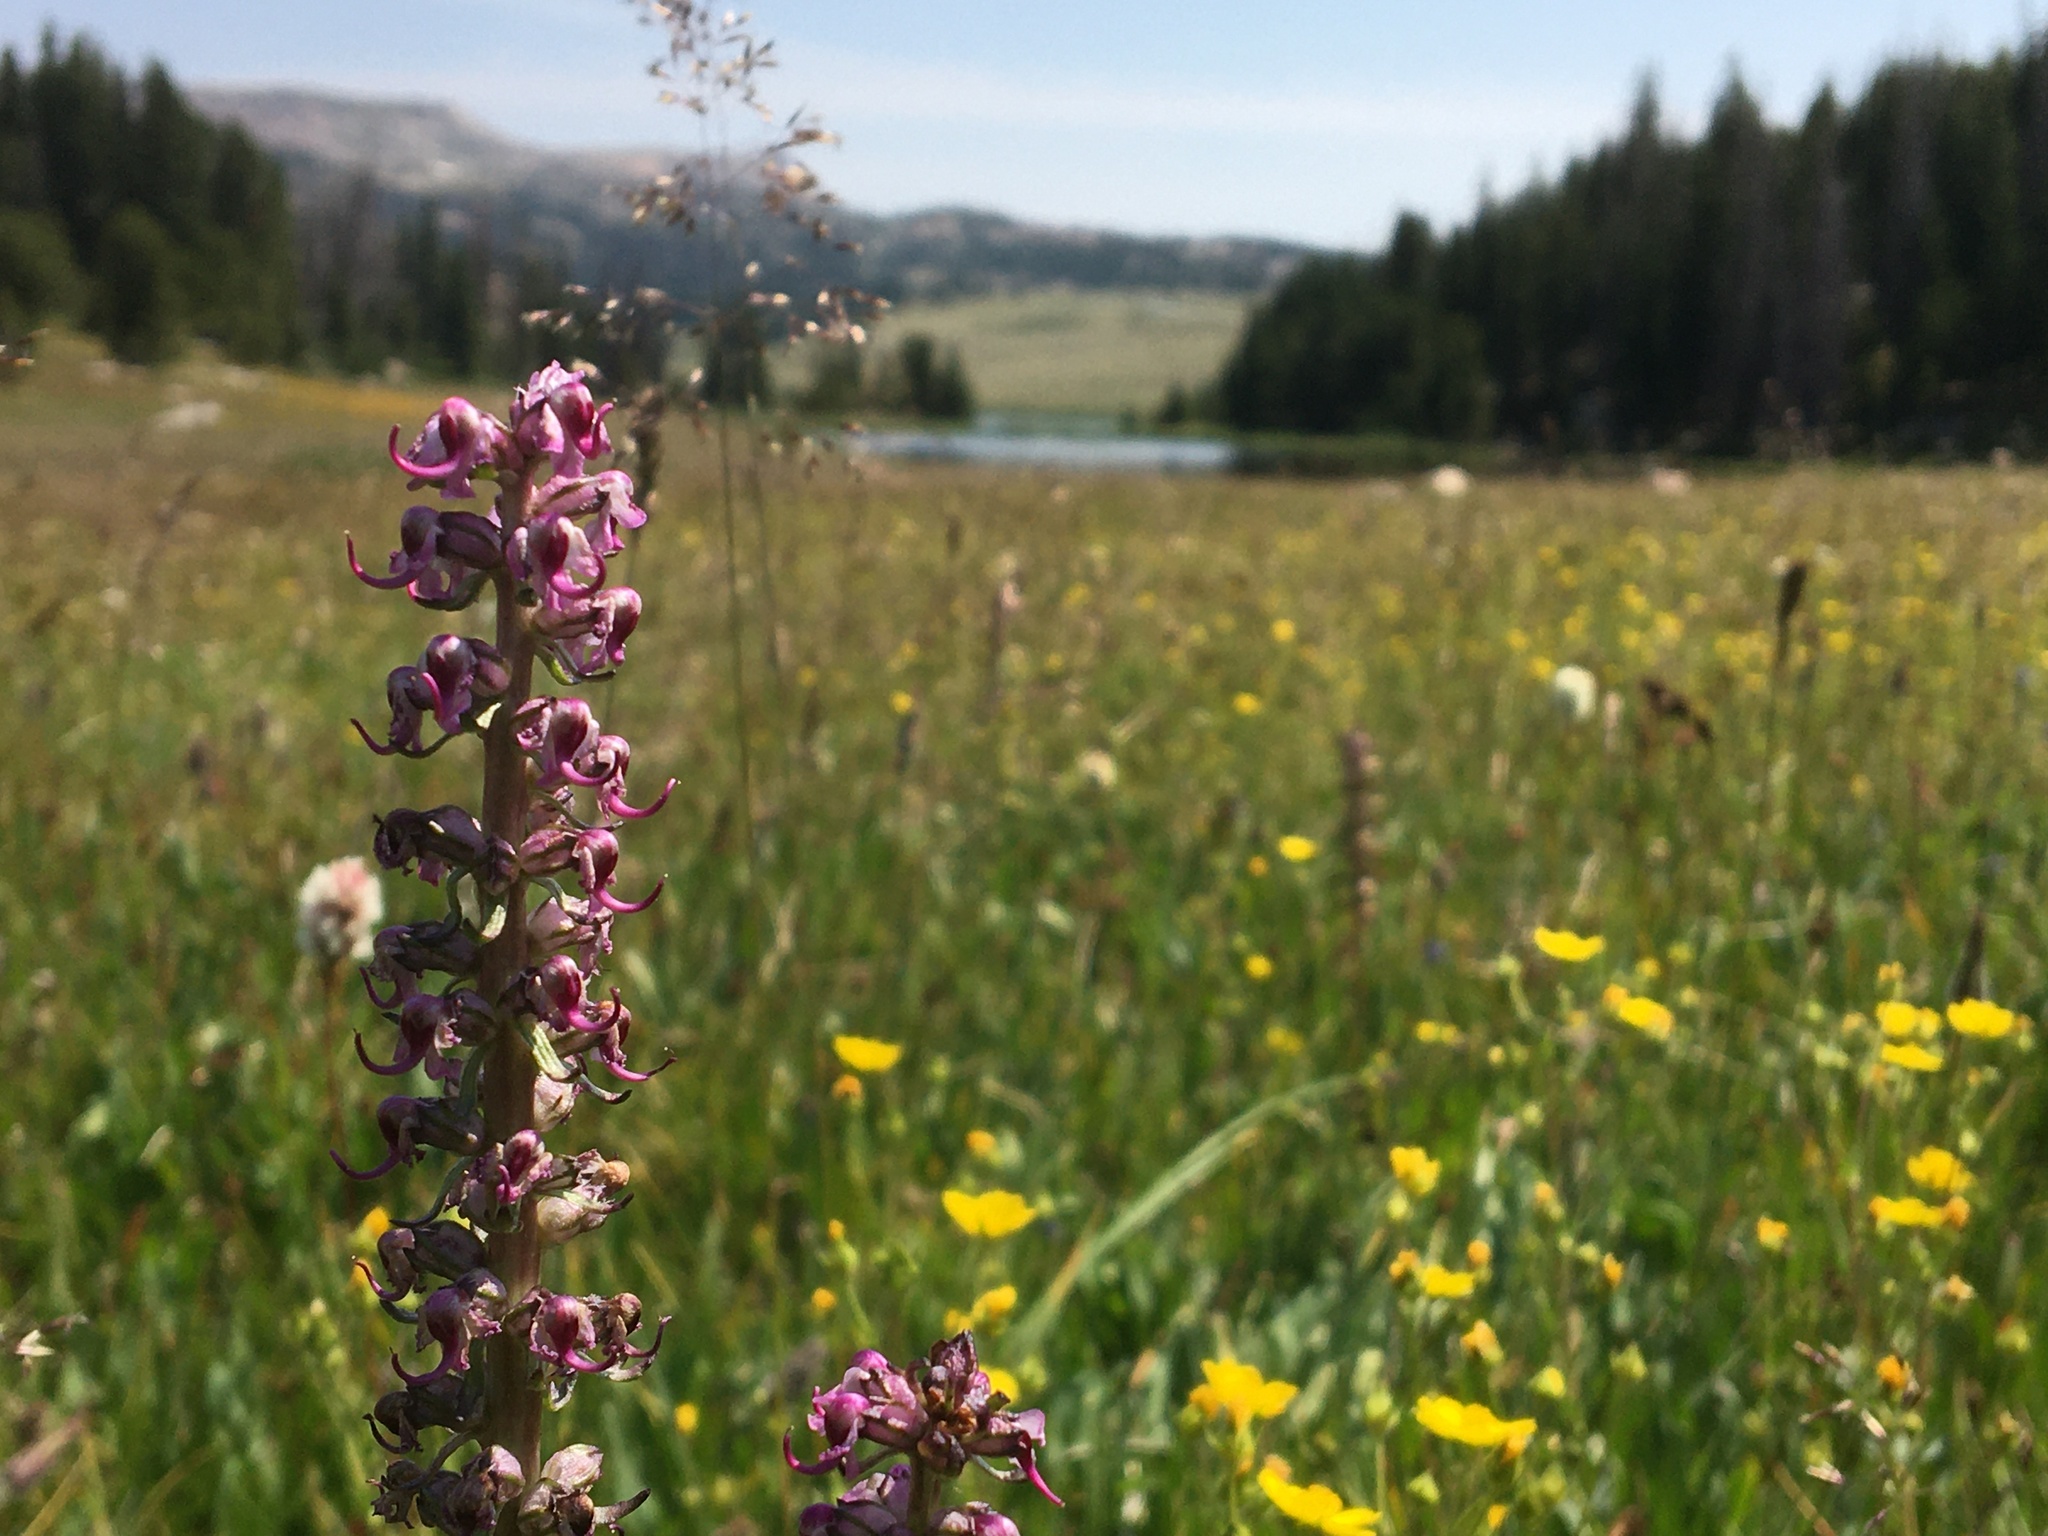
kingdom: Plantae
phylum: Tracheophyta
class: Magnoliopsida
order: Lamiales
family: Orobanchaceae
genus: Pedicularis
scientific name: Pedicularis groenlandica
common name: Elephant's-head
